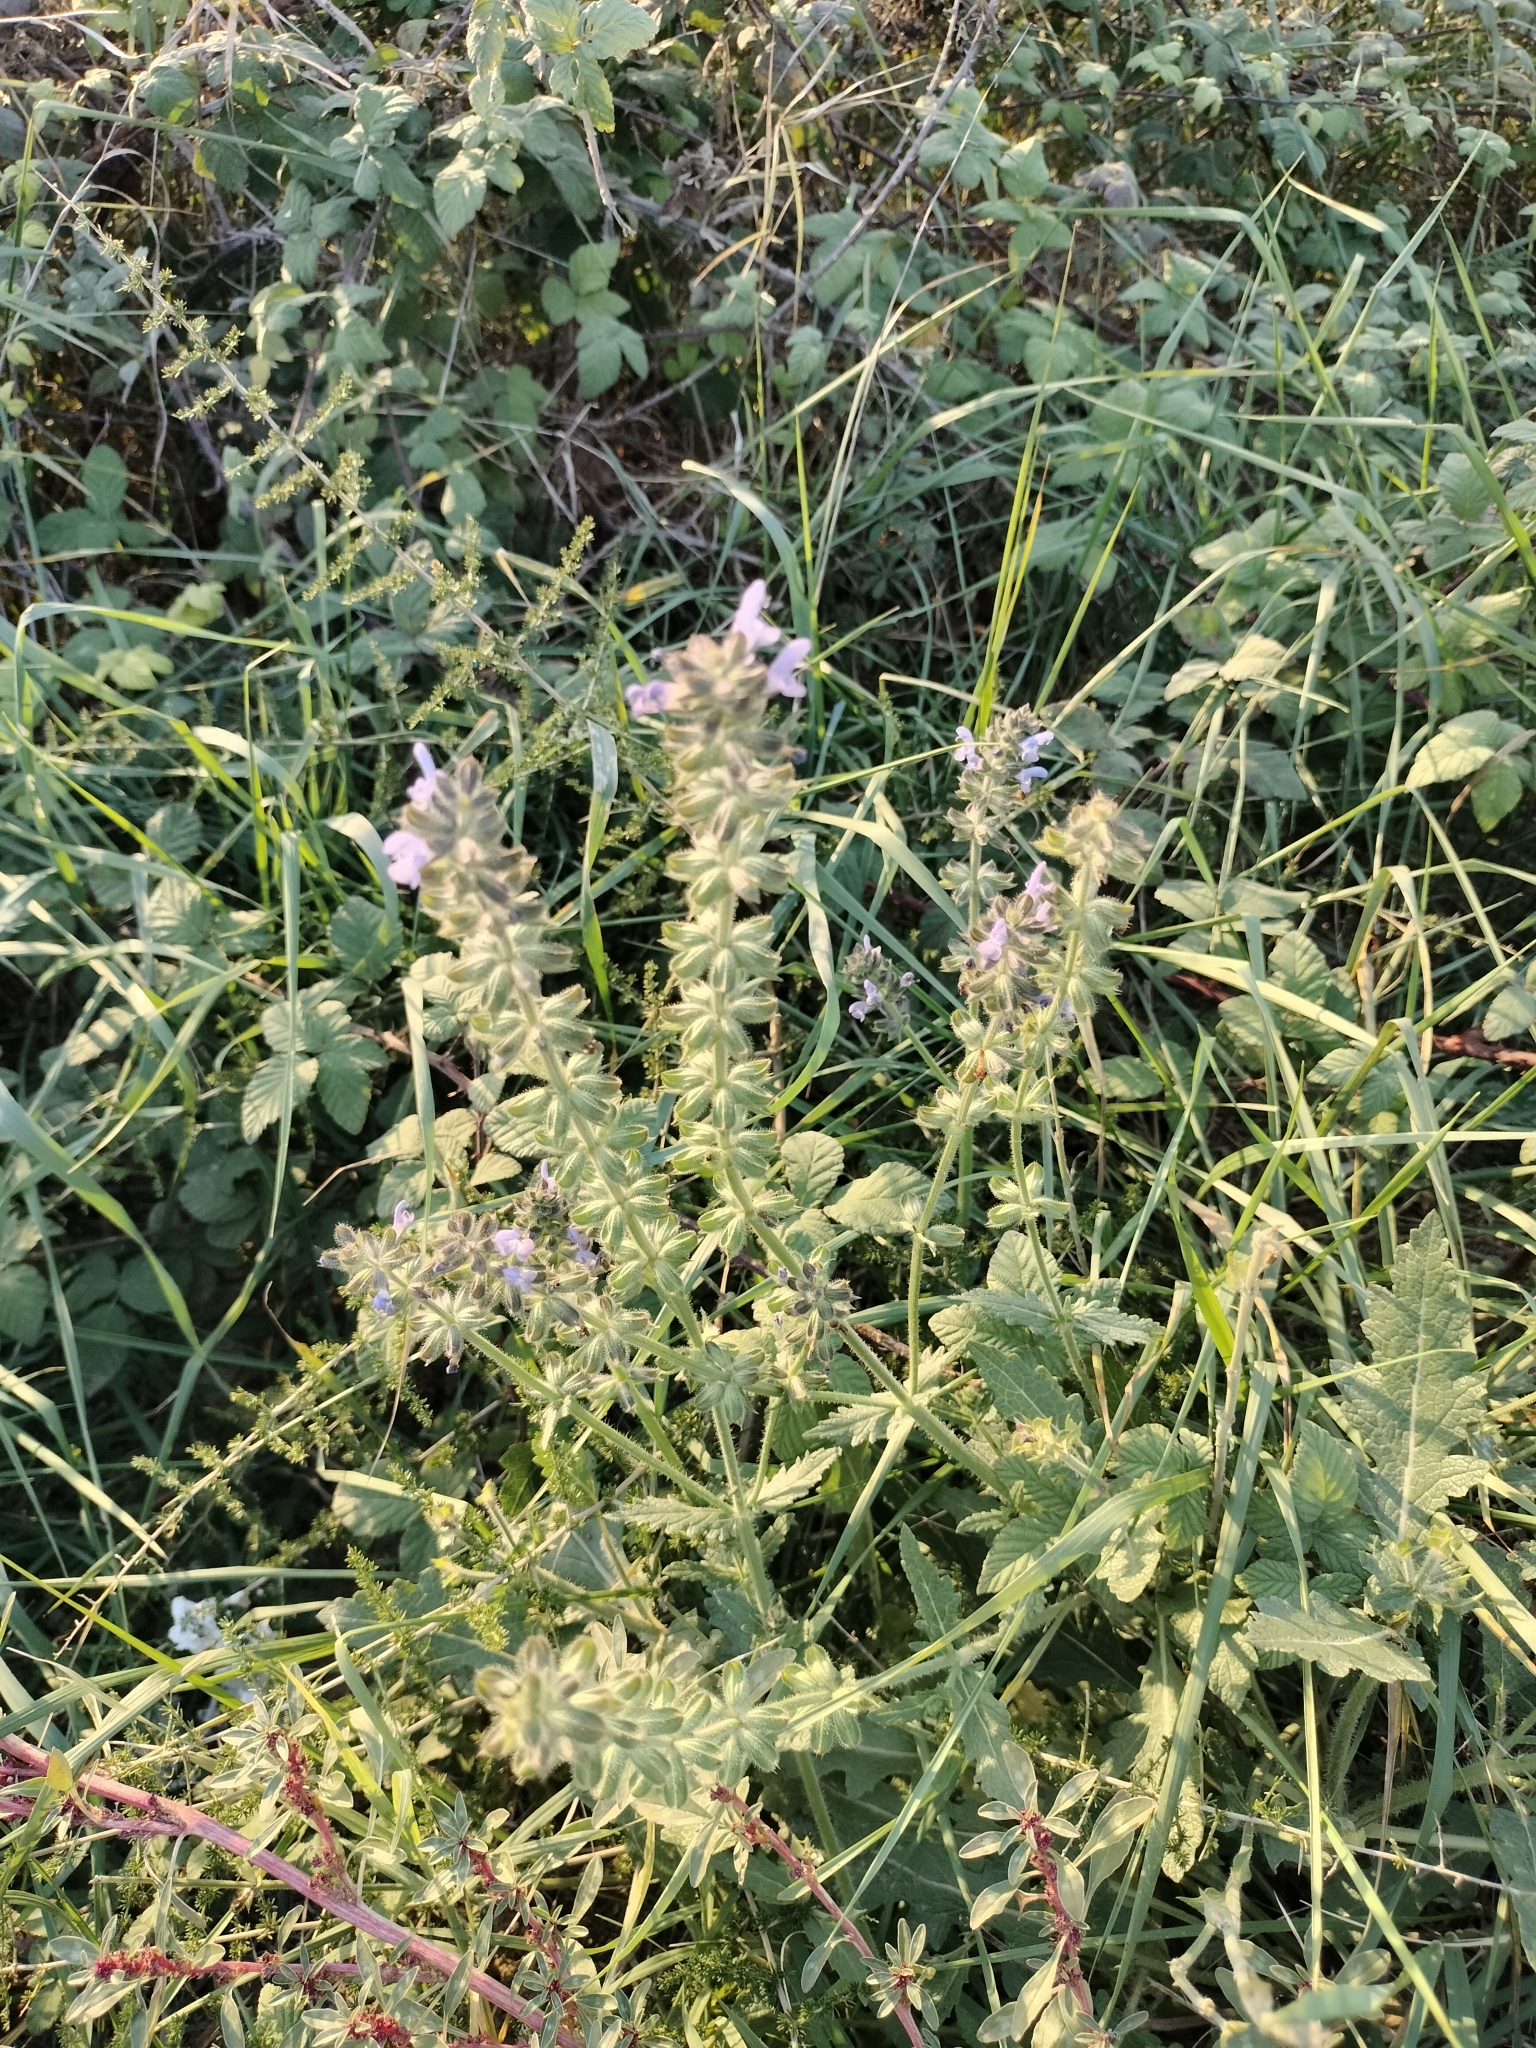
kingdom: Plantae
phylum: Tracheophyta
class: Magnoliopsida
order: Lamiales
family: Lamiaceae
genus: Salvia
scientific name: Salvia verbenaca
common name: Wild clary
